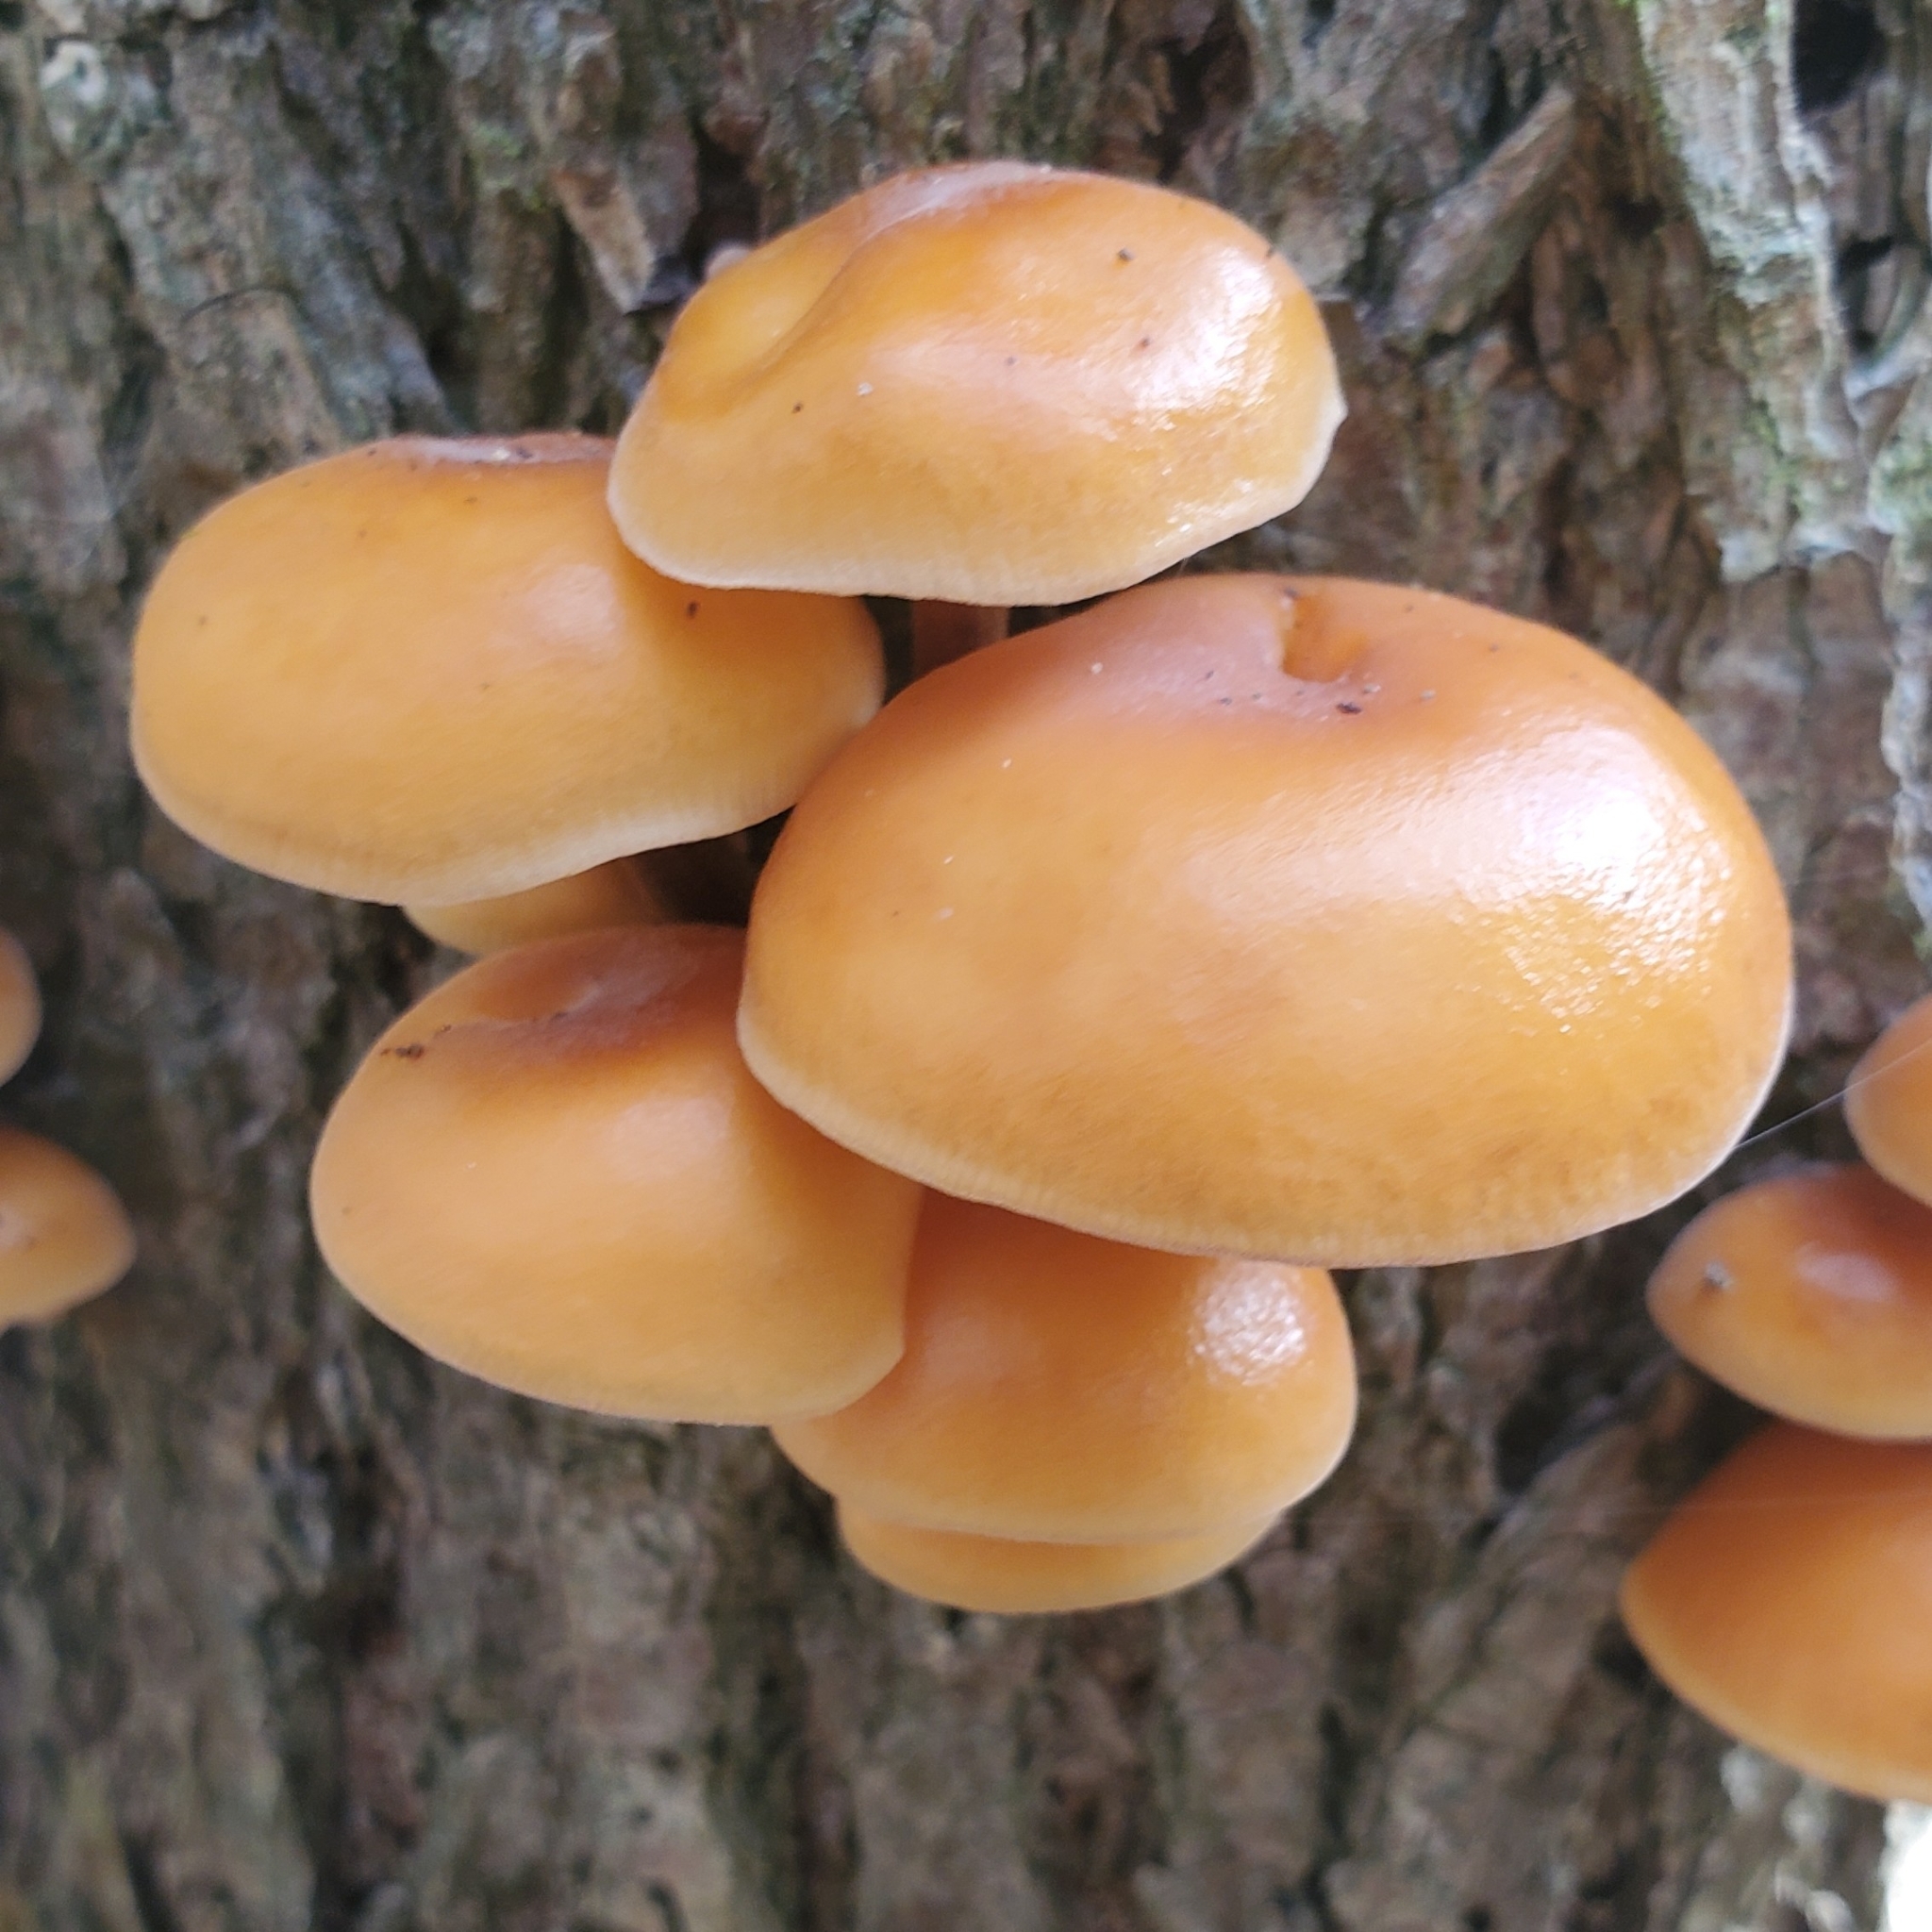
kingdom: Fungi
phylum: Basidiomycota
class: Agaricomycetes
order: Agaricales
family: Physalacriaceae
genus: Flammulina
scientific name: Flammulina velutipes
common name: Velvet shank
